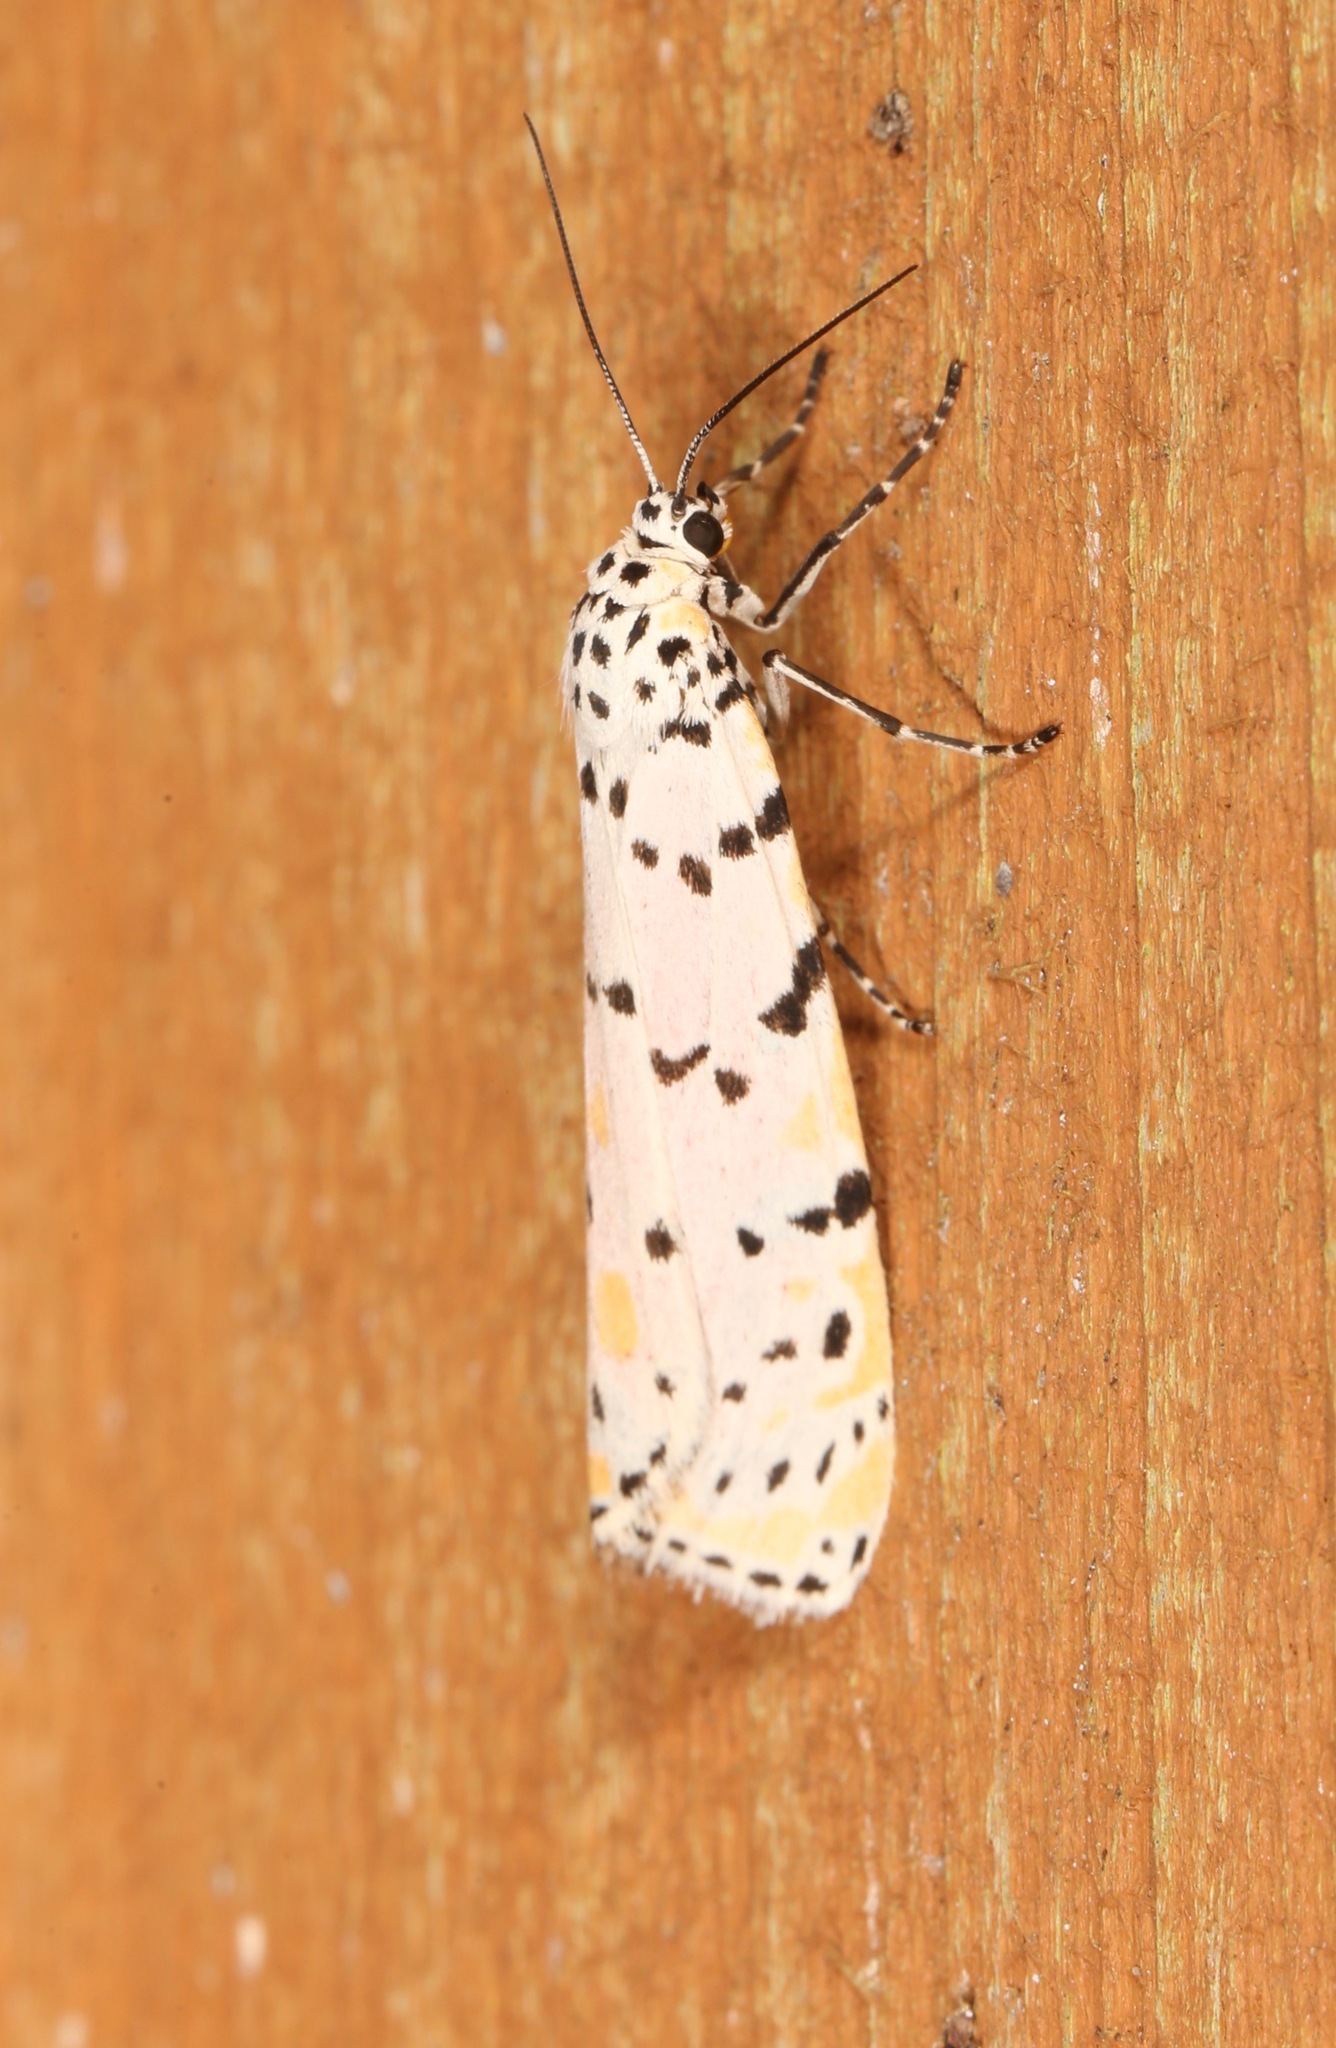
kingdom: Animalia
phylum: Arthropoda
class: Insecta
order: Lepidoptera
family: Erebidae
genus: Utetheisa
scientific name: Utetheisa ornatrix
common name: Beautiful utetheisa
